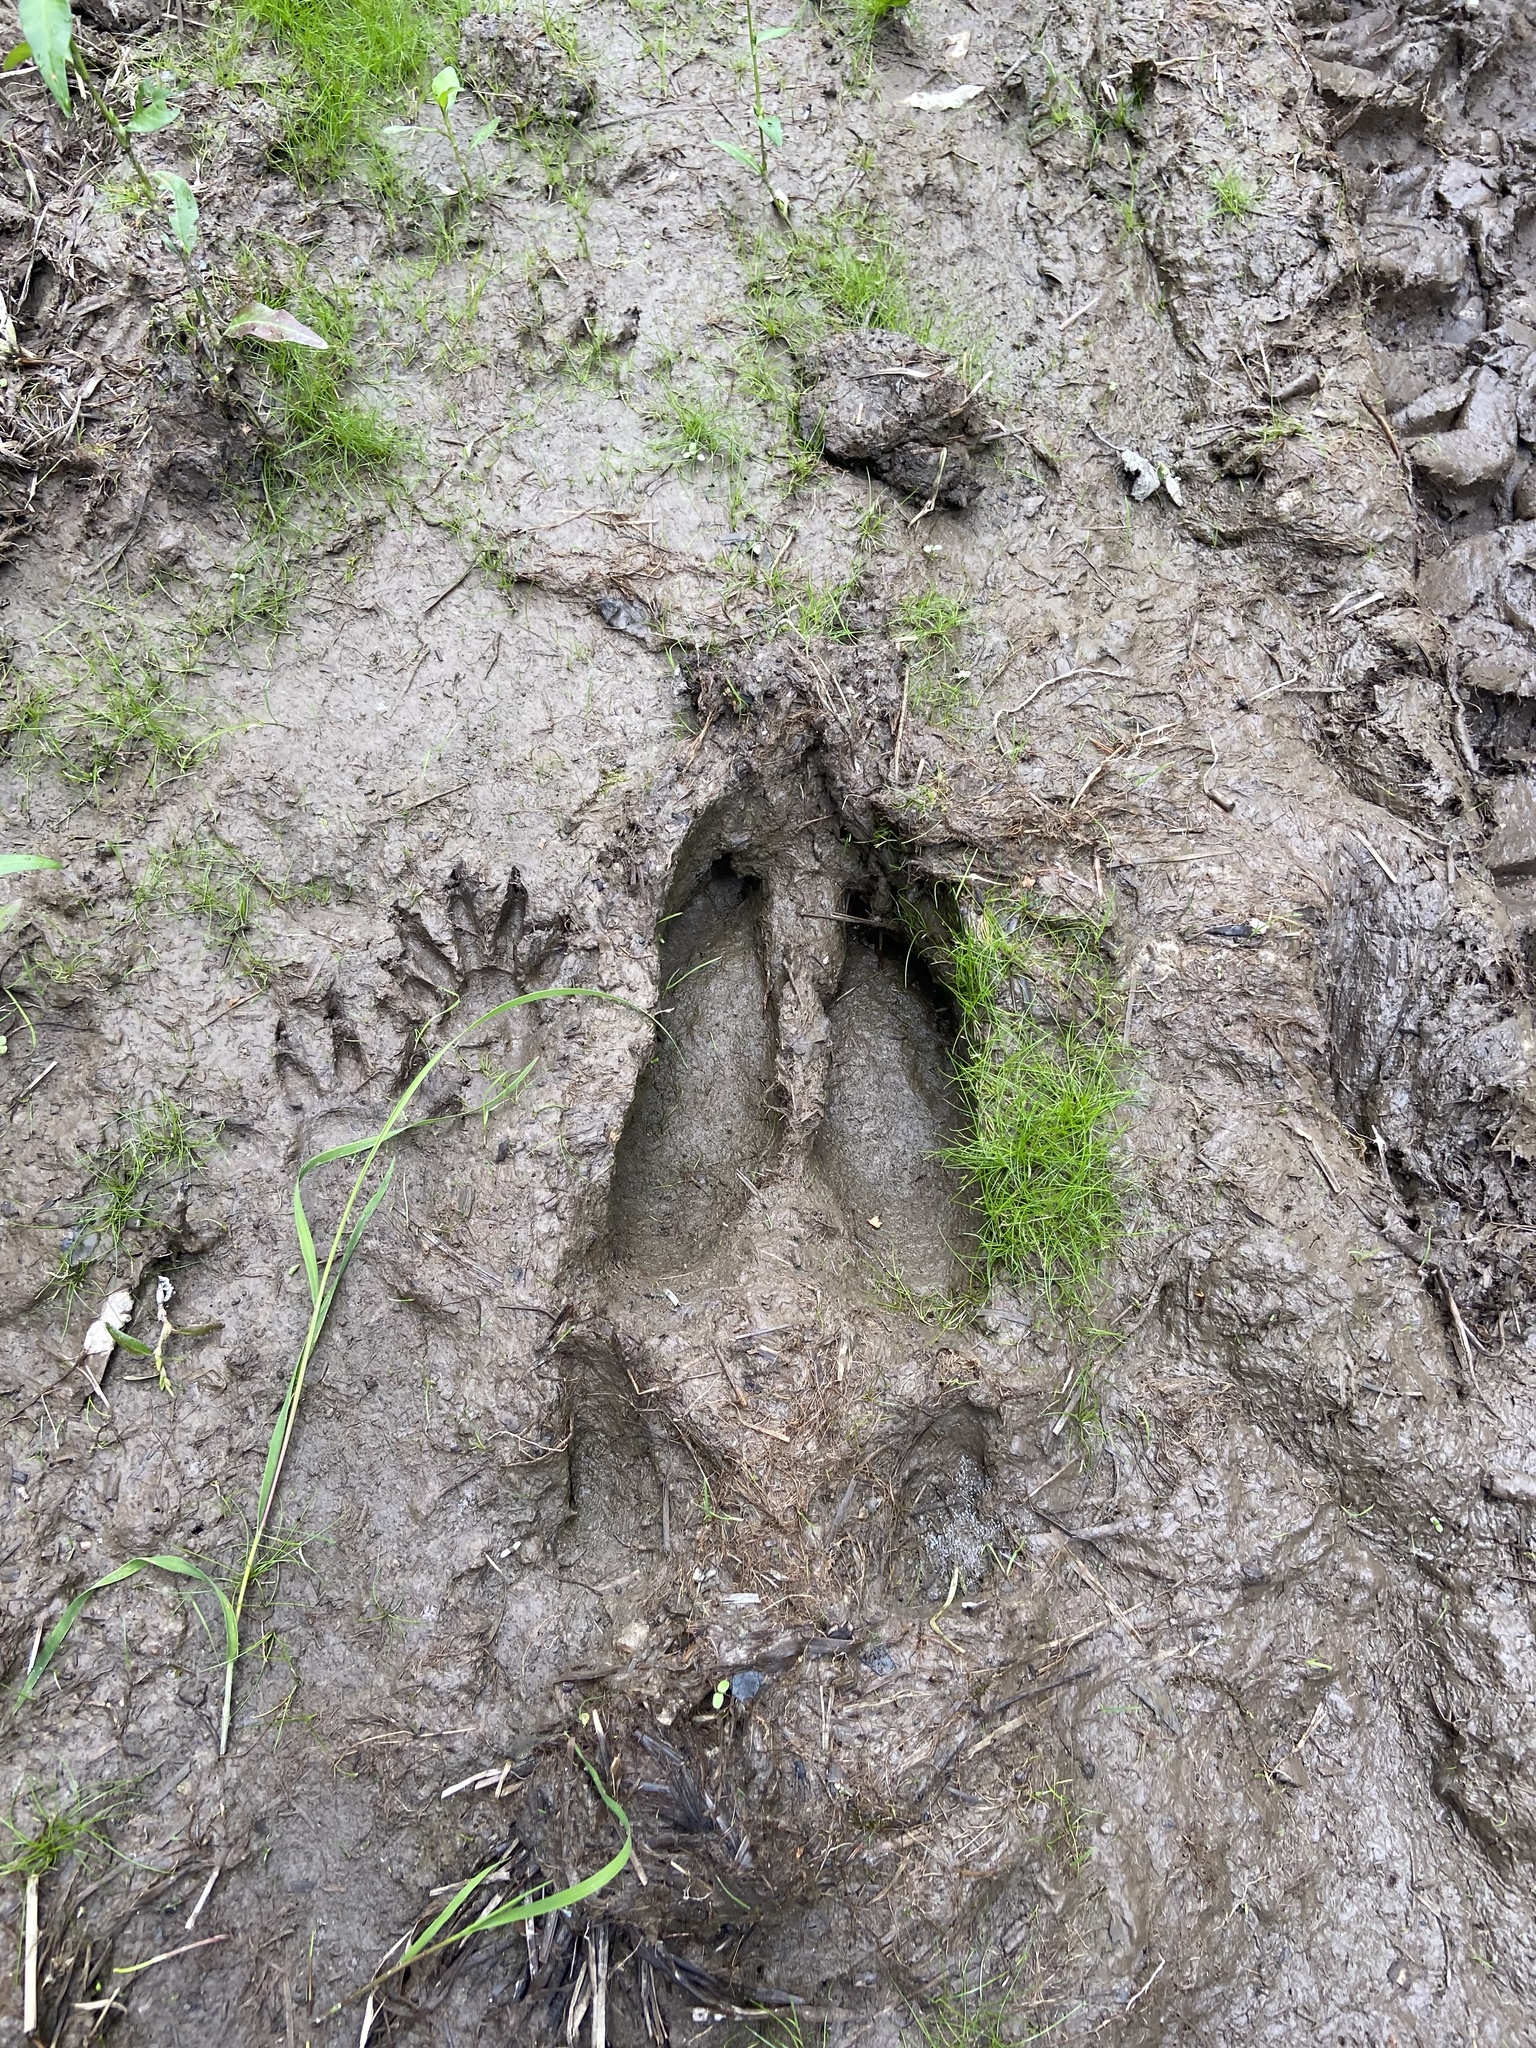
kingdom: Animalia
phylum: Chordata
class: Mammalia
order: Artiodactyla
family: Cervidae
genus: Alces
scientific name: Alces alces
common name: Moose
